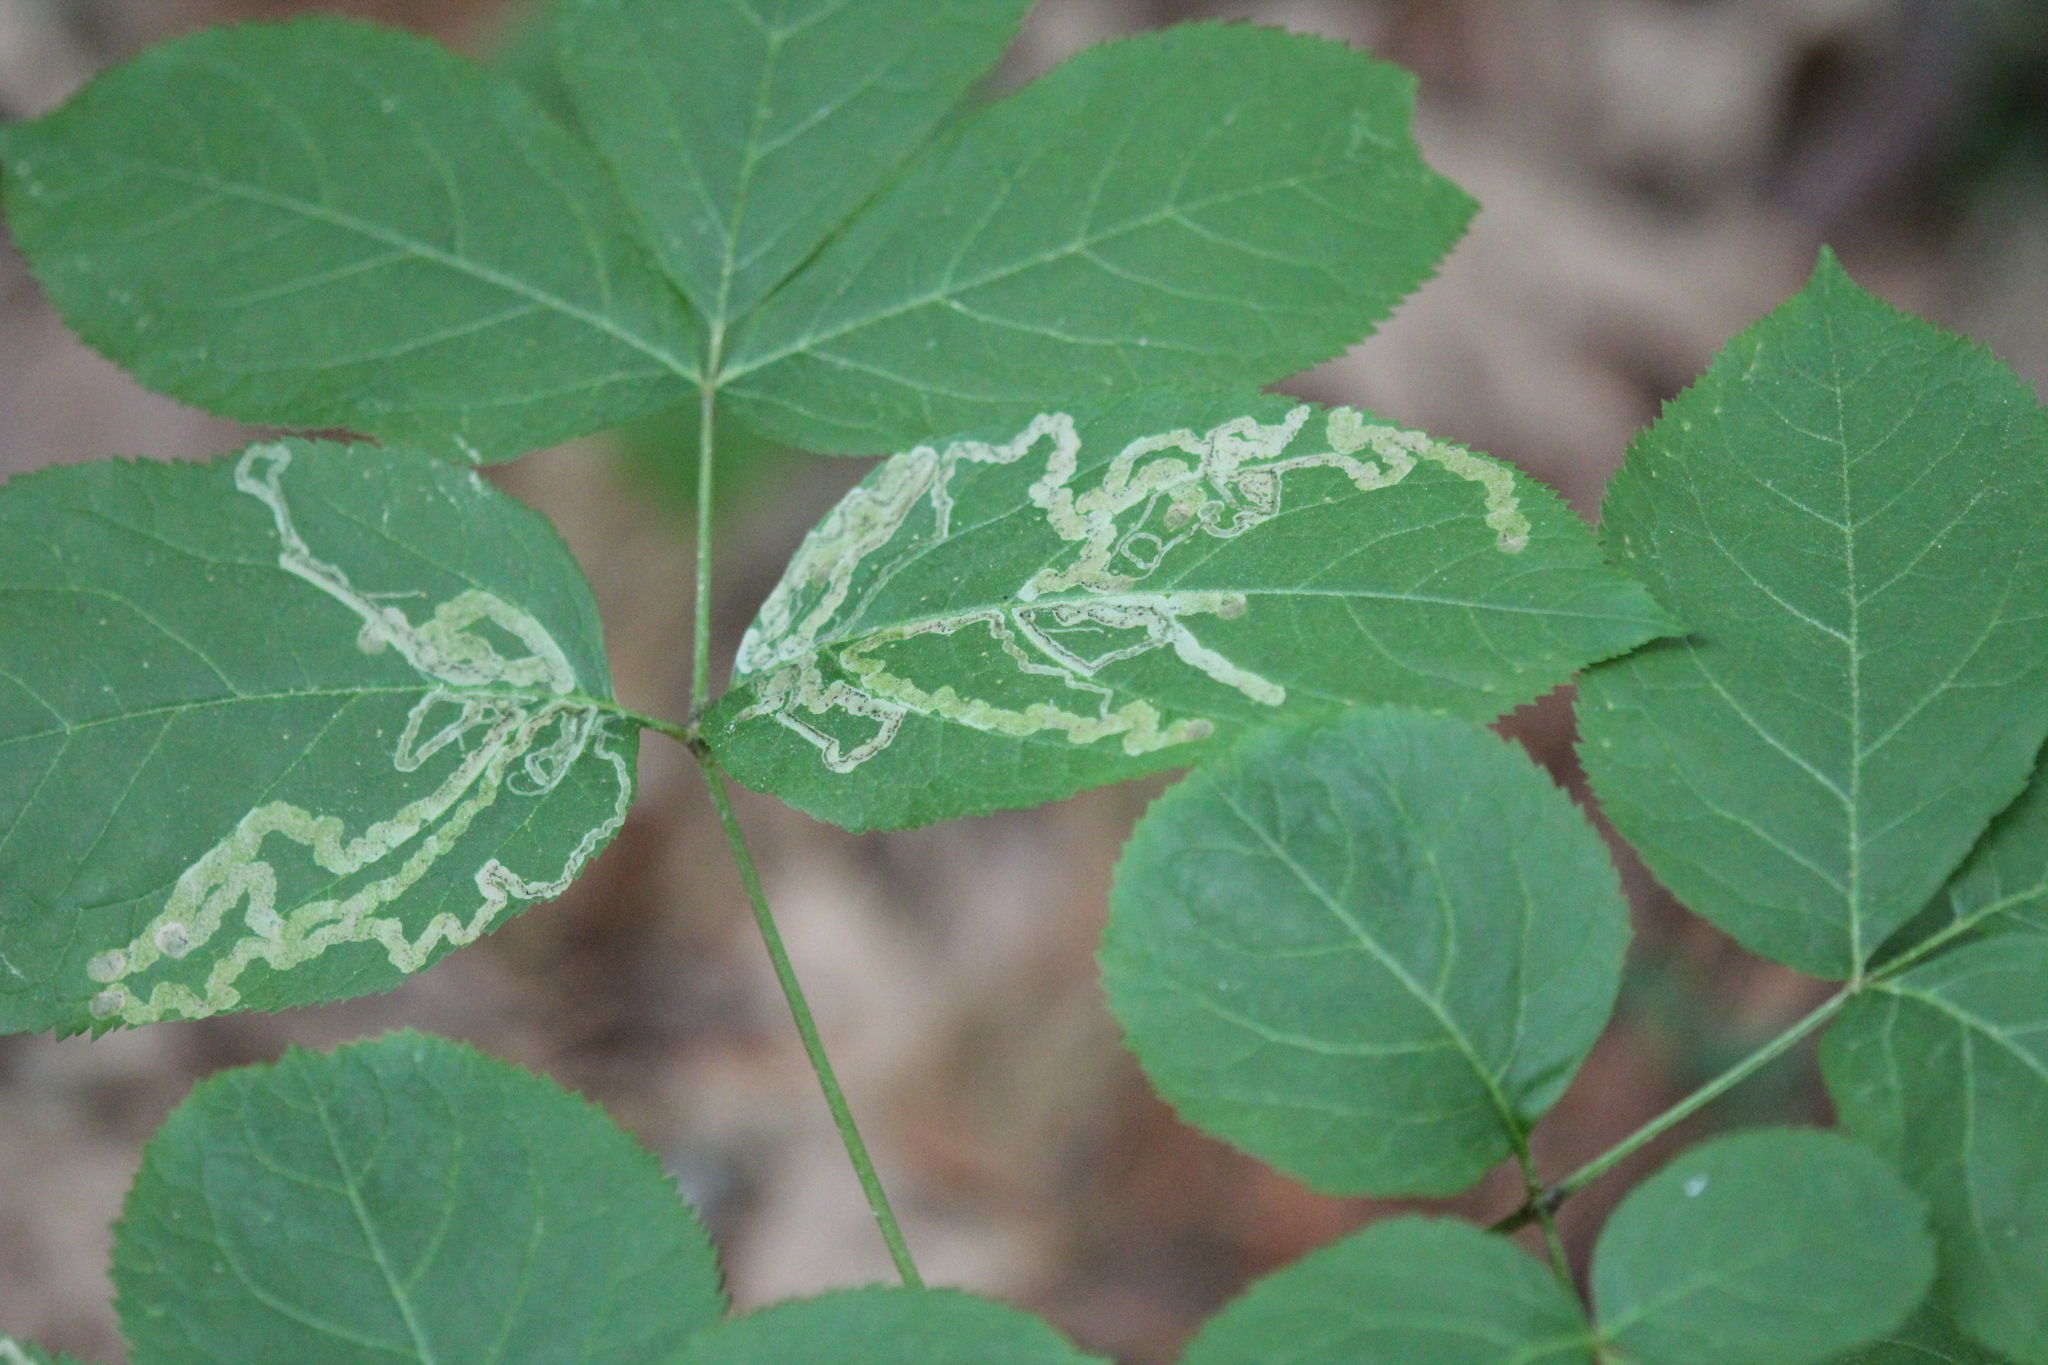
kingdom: Animalia
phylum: Arthropoda
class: Insecta
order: Diptera
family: Agromyzidae
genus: Phytomyza
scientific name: Phytomyza aralivora
